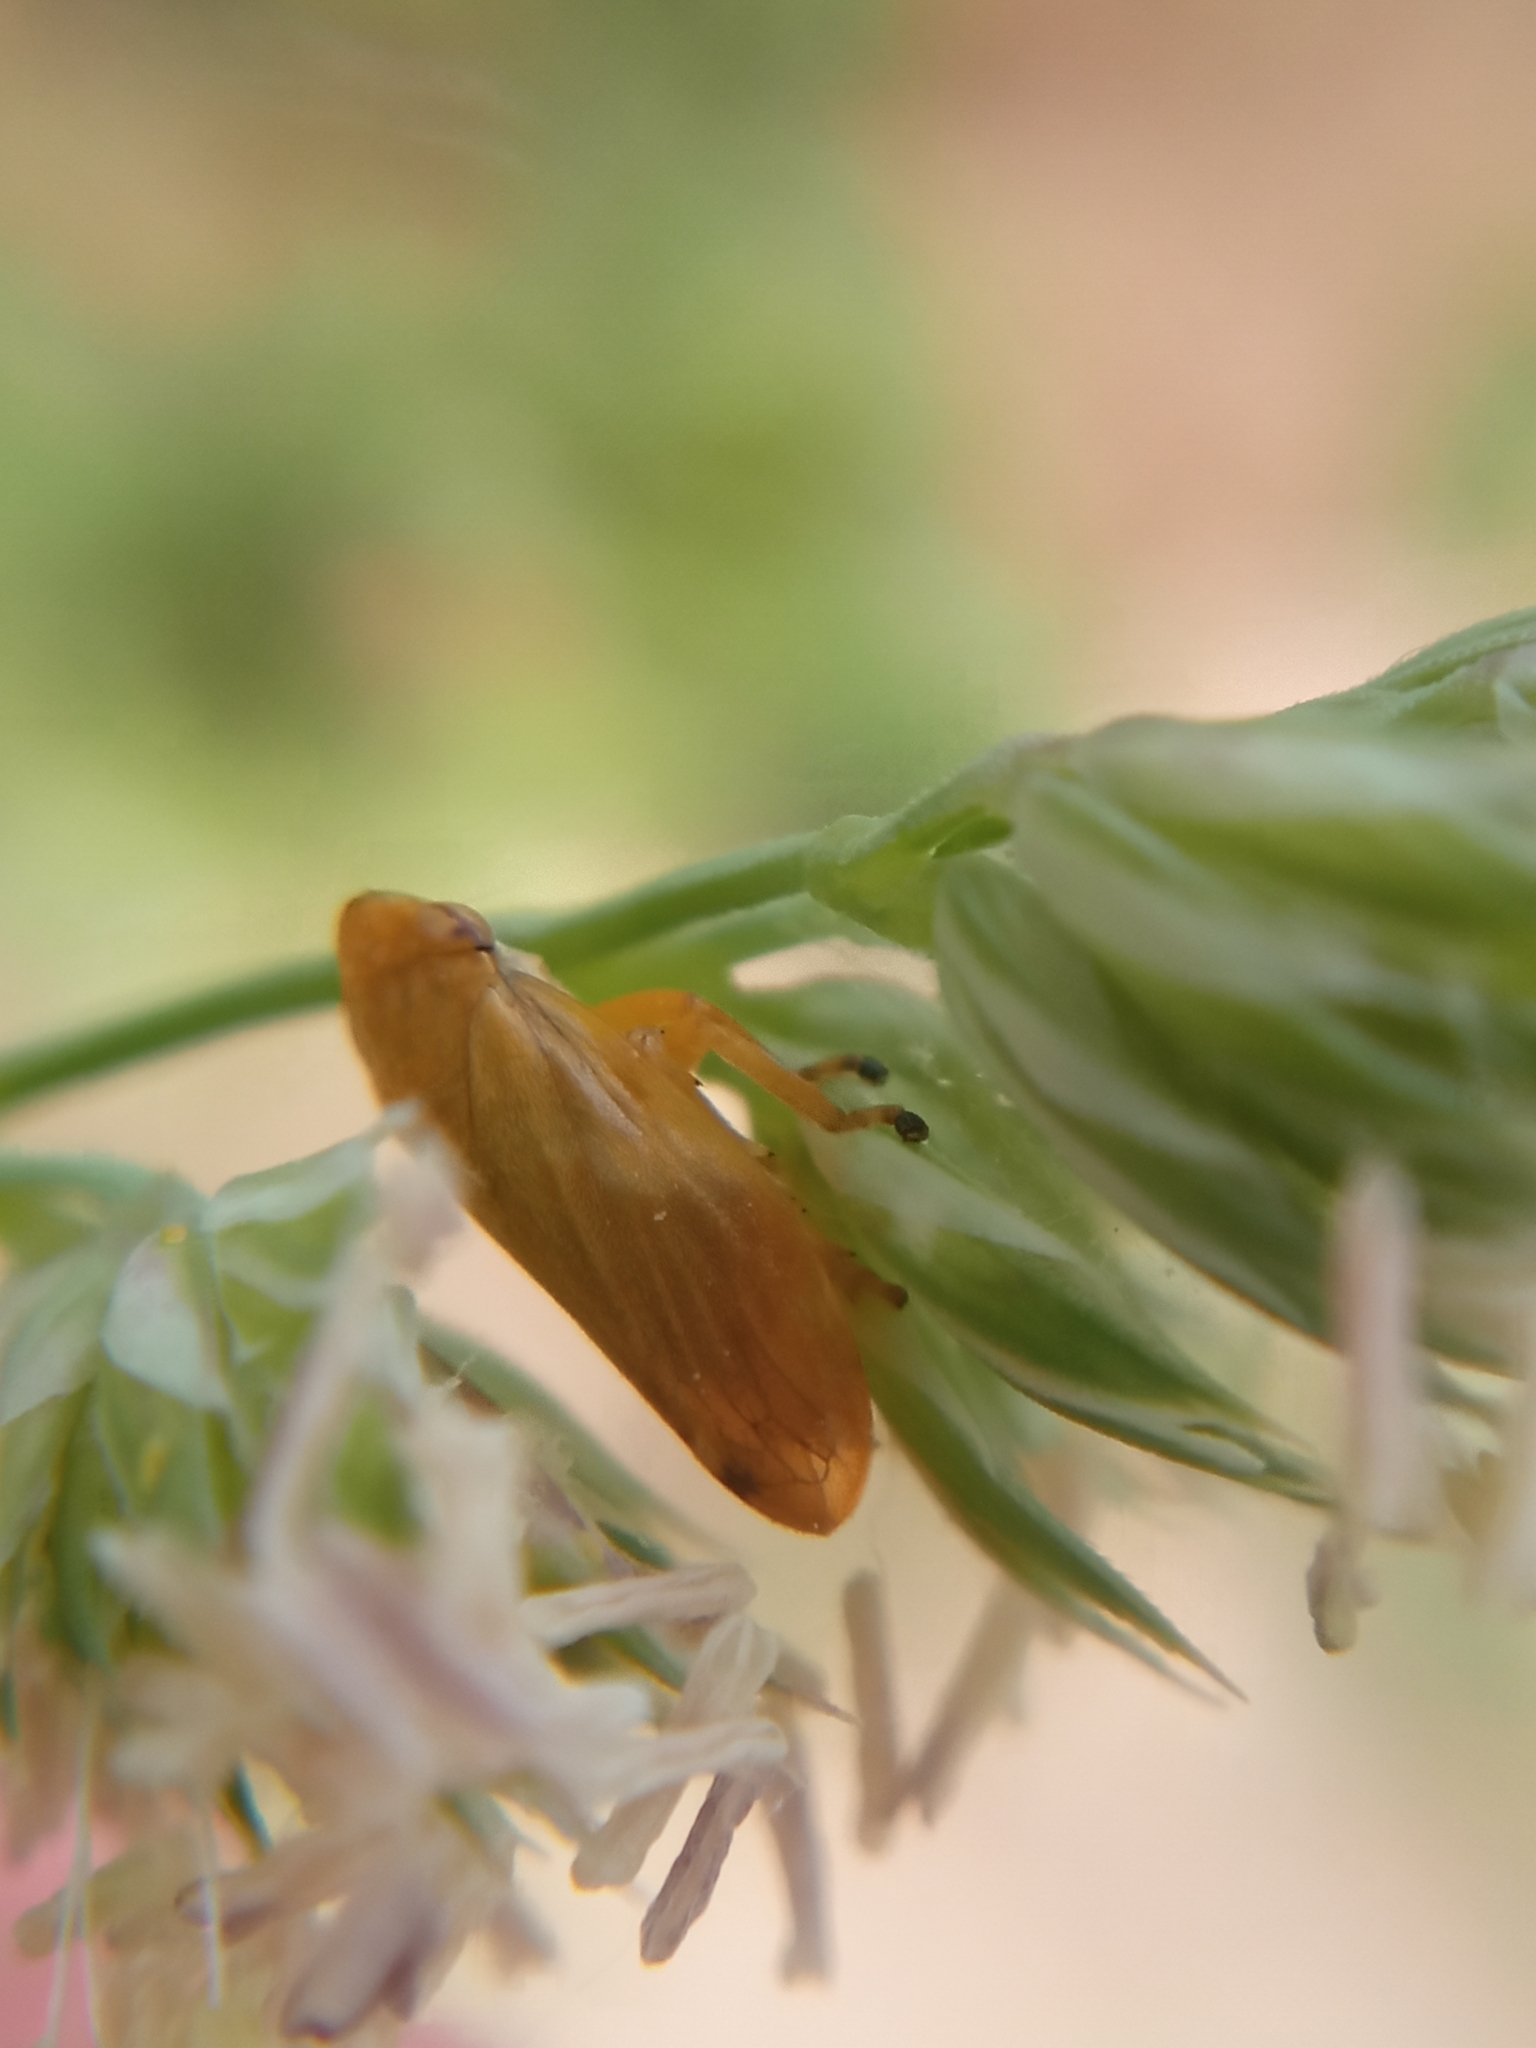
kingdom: Animalia
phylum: Arthropoda
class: Insecta
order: Hemiptera
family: Aphrophoridae
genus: Philaenus
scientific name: Philaenus spumarius
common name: Meadow spittlebug
